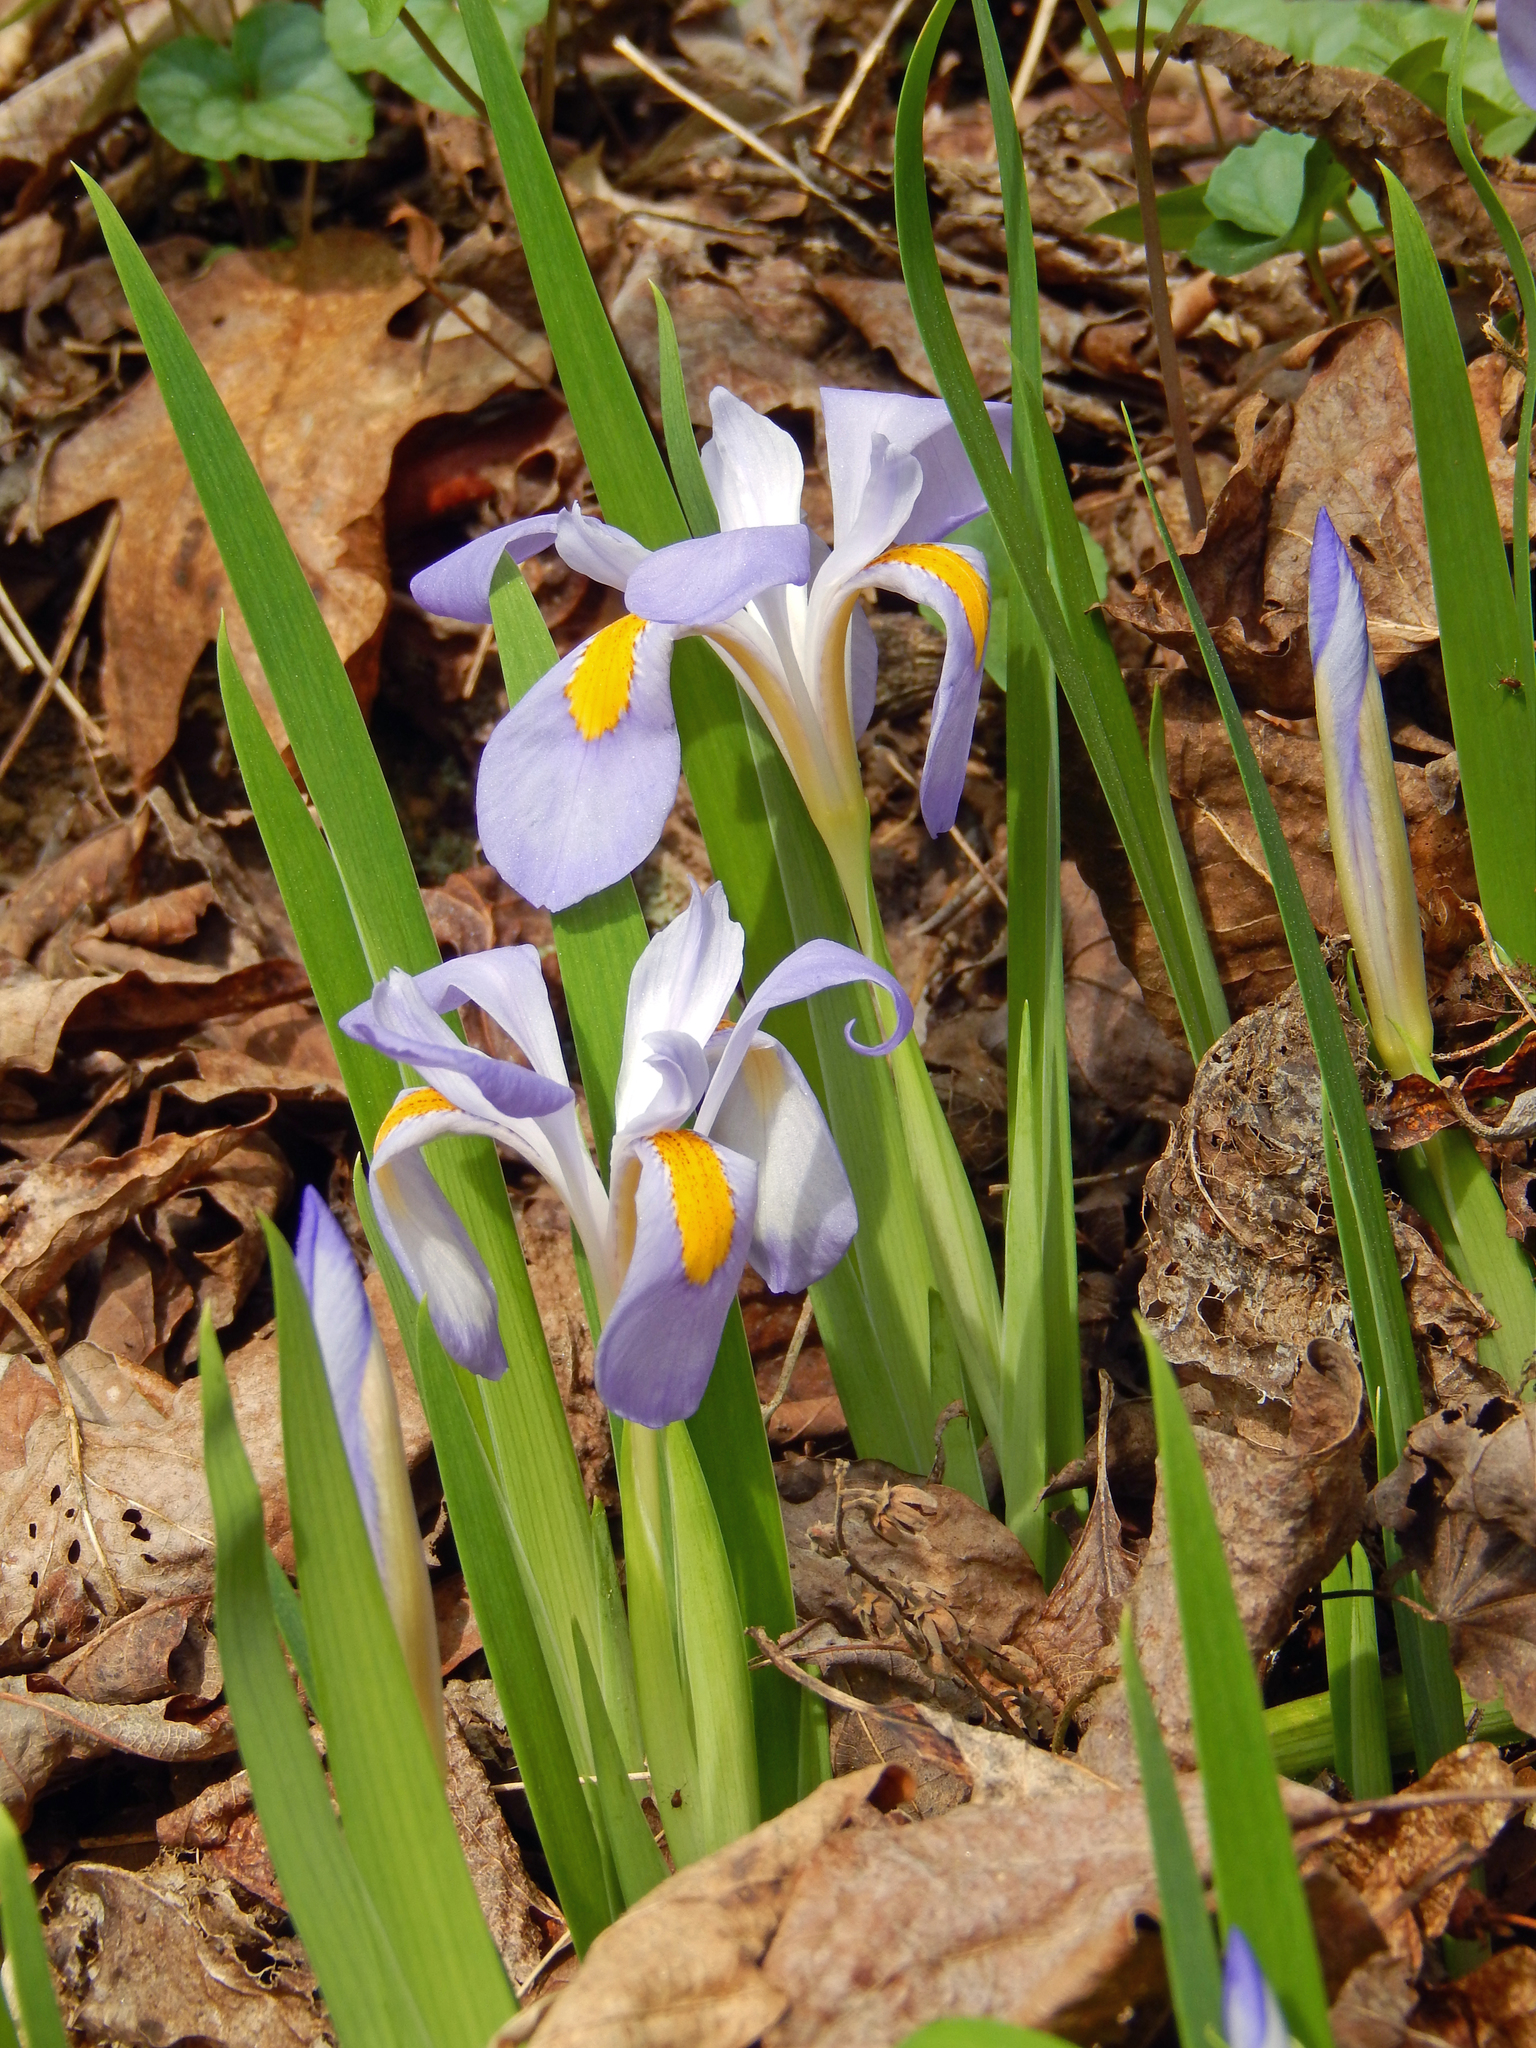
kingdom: Plantae
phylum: Tracheophyta
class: Liliopsida
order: Asparagales
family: Iridaceae
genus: Iris
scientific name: Iris verna
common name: Dwarf iris
